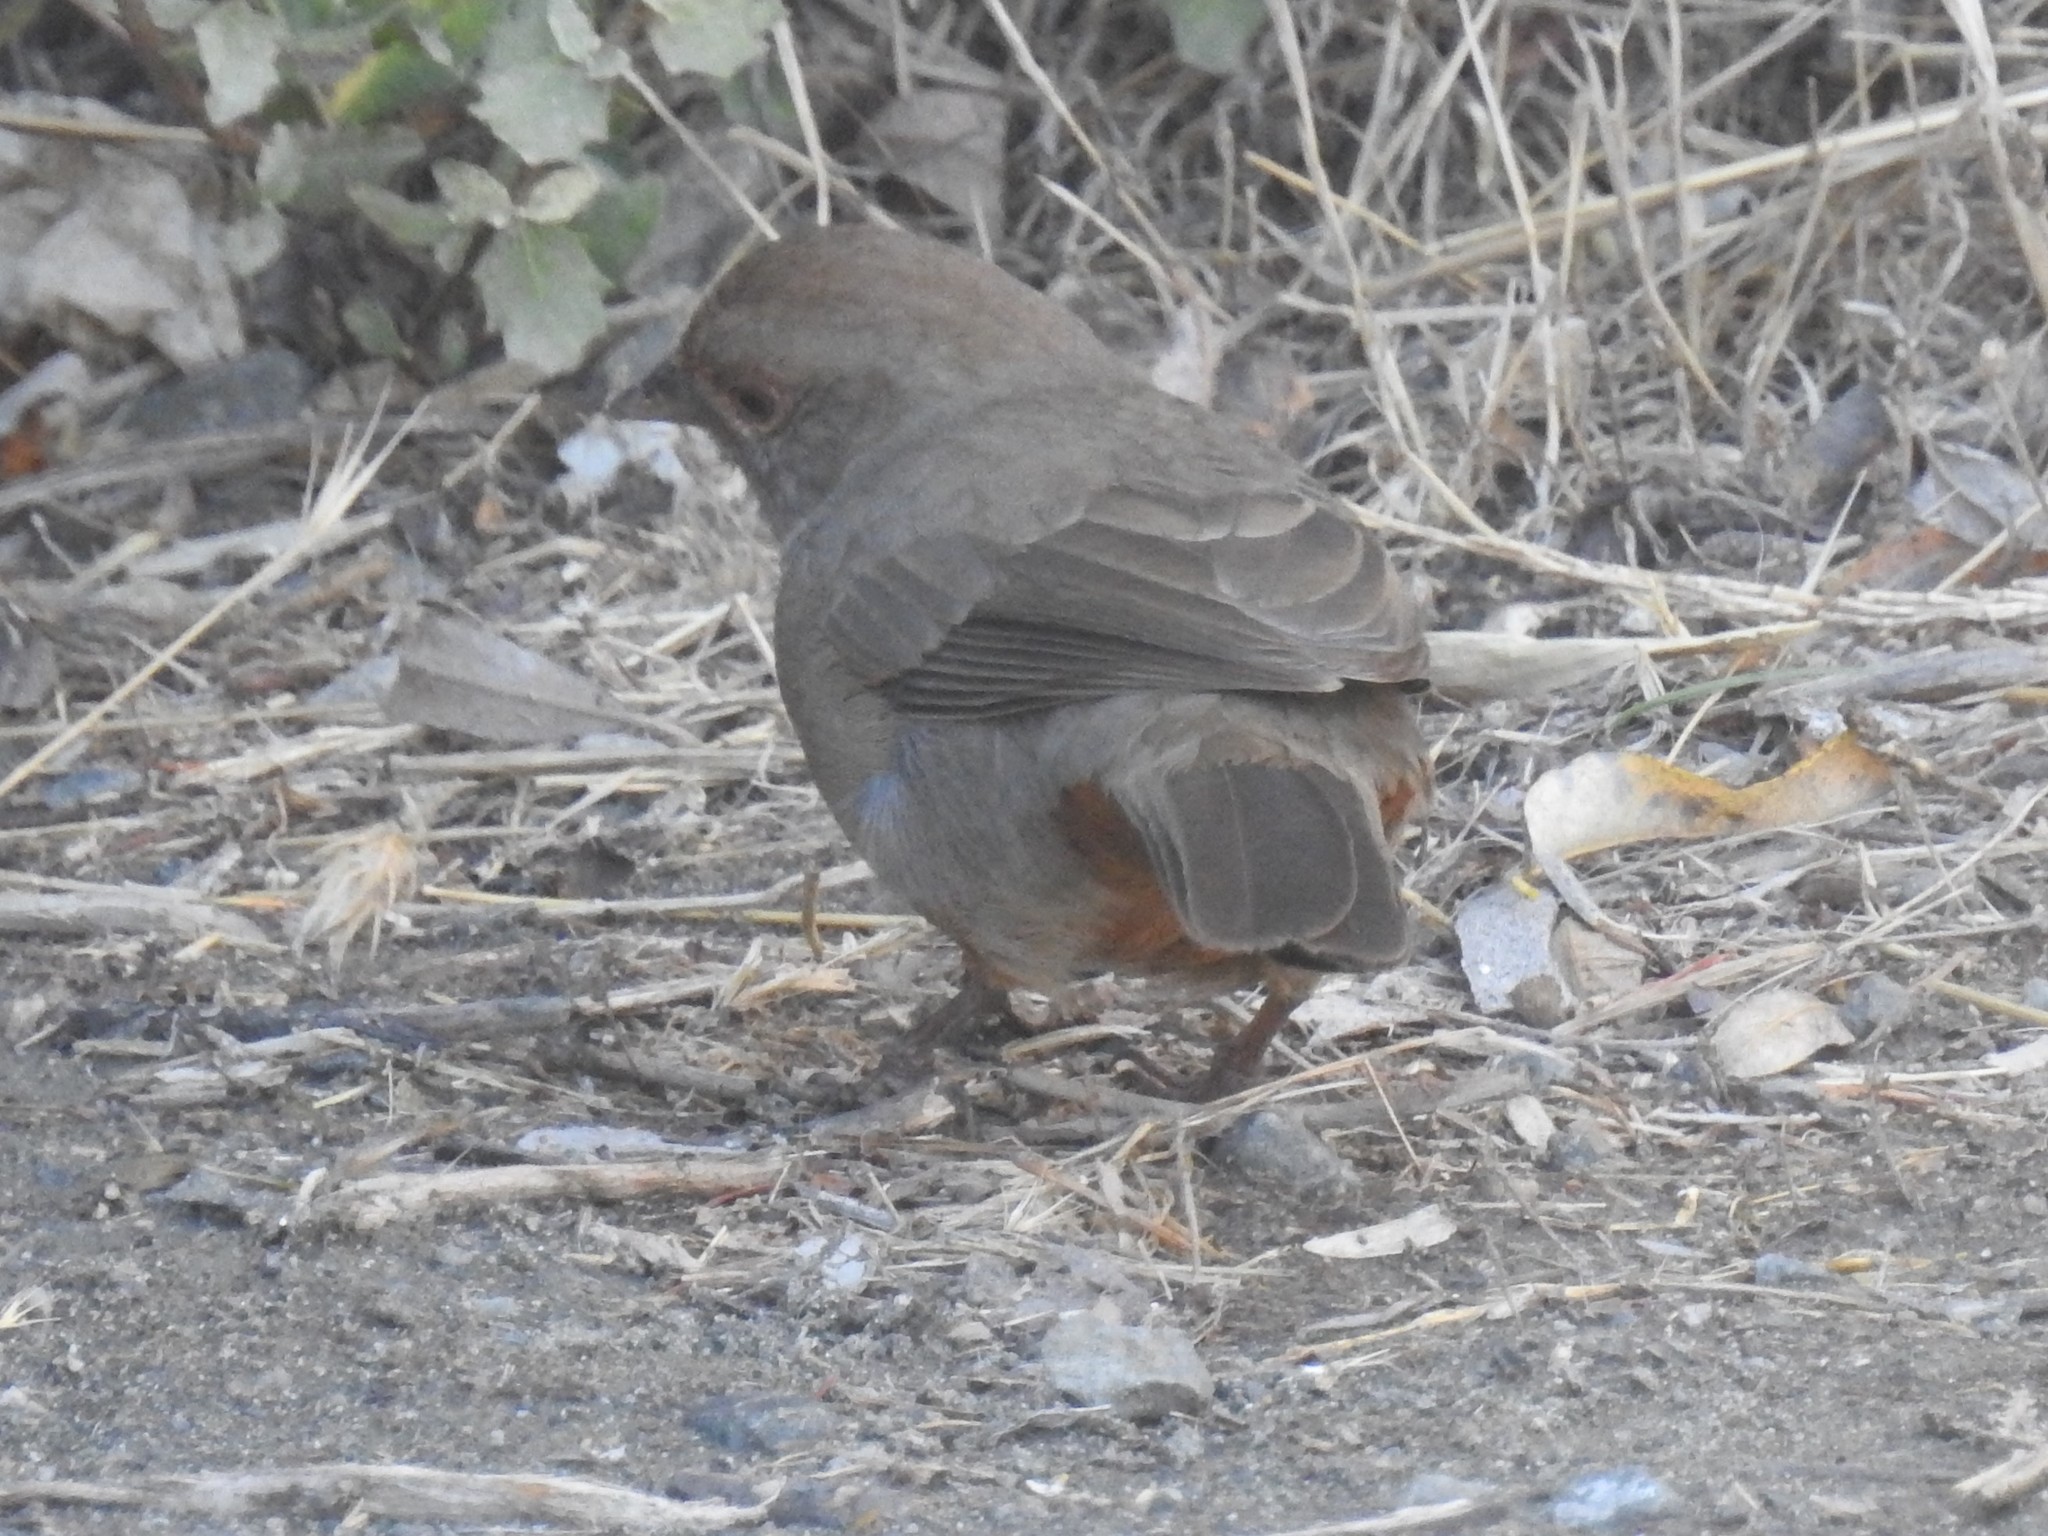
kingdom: Animalia
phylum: Chordata
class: Aves
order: Passeriformes
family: Passerellidae
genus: Melozone
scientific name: Melozone crissalis
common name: California towhee
